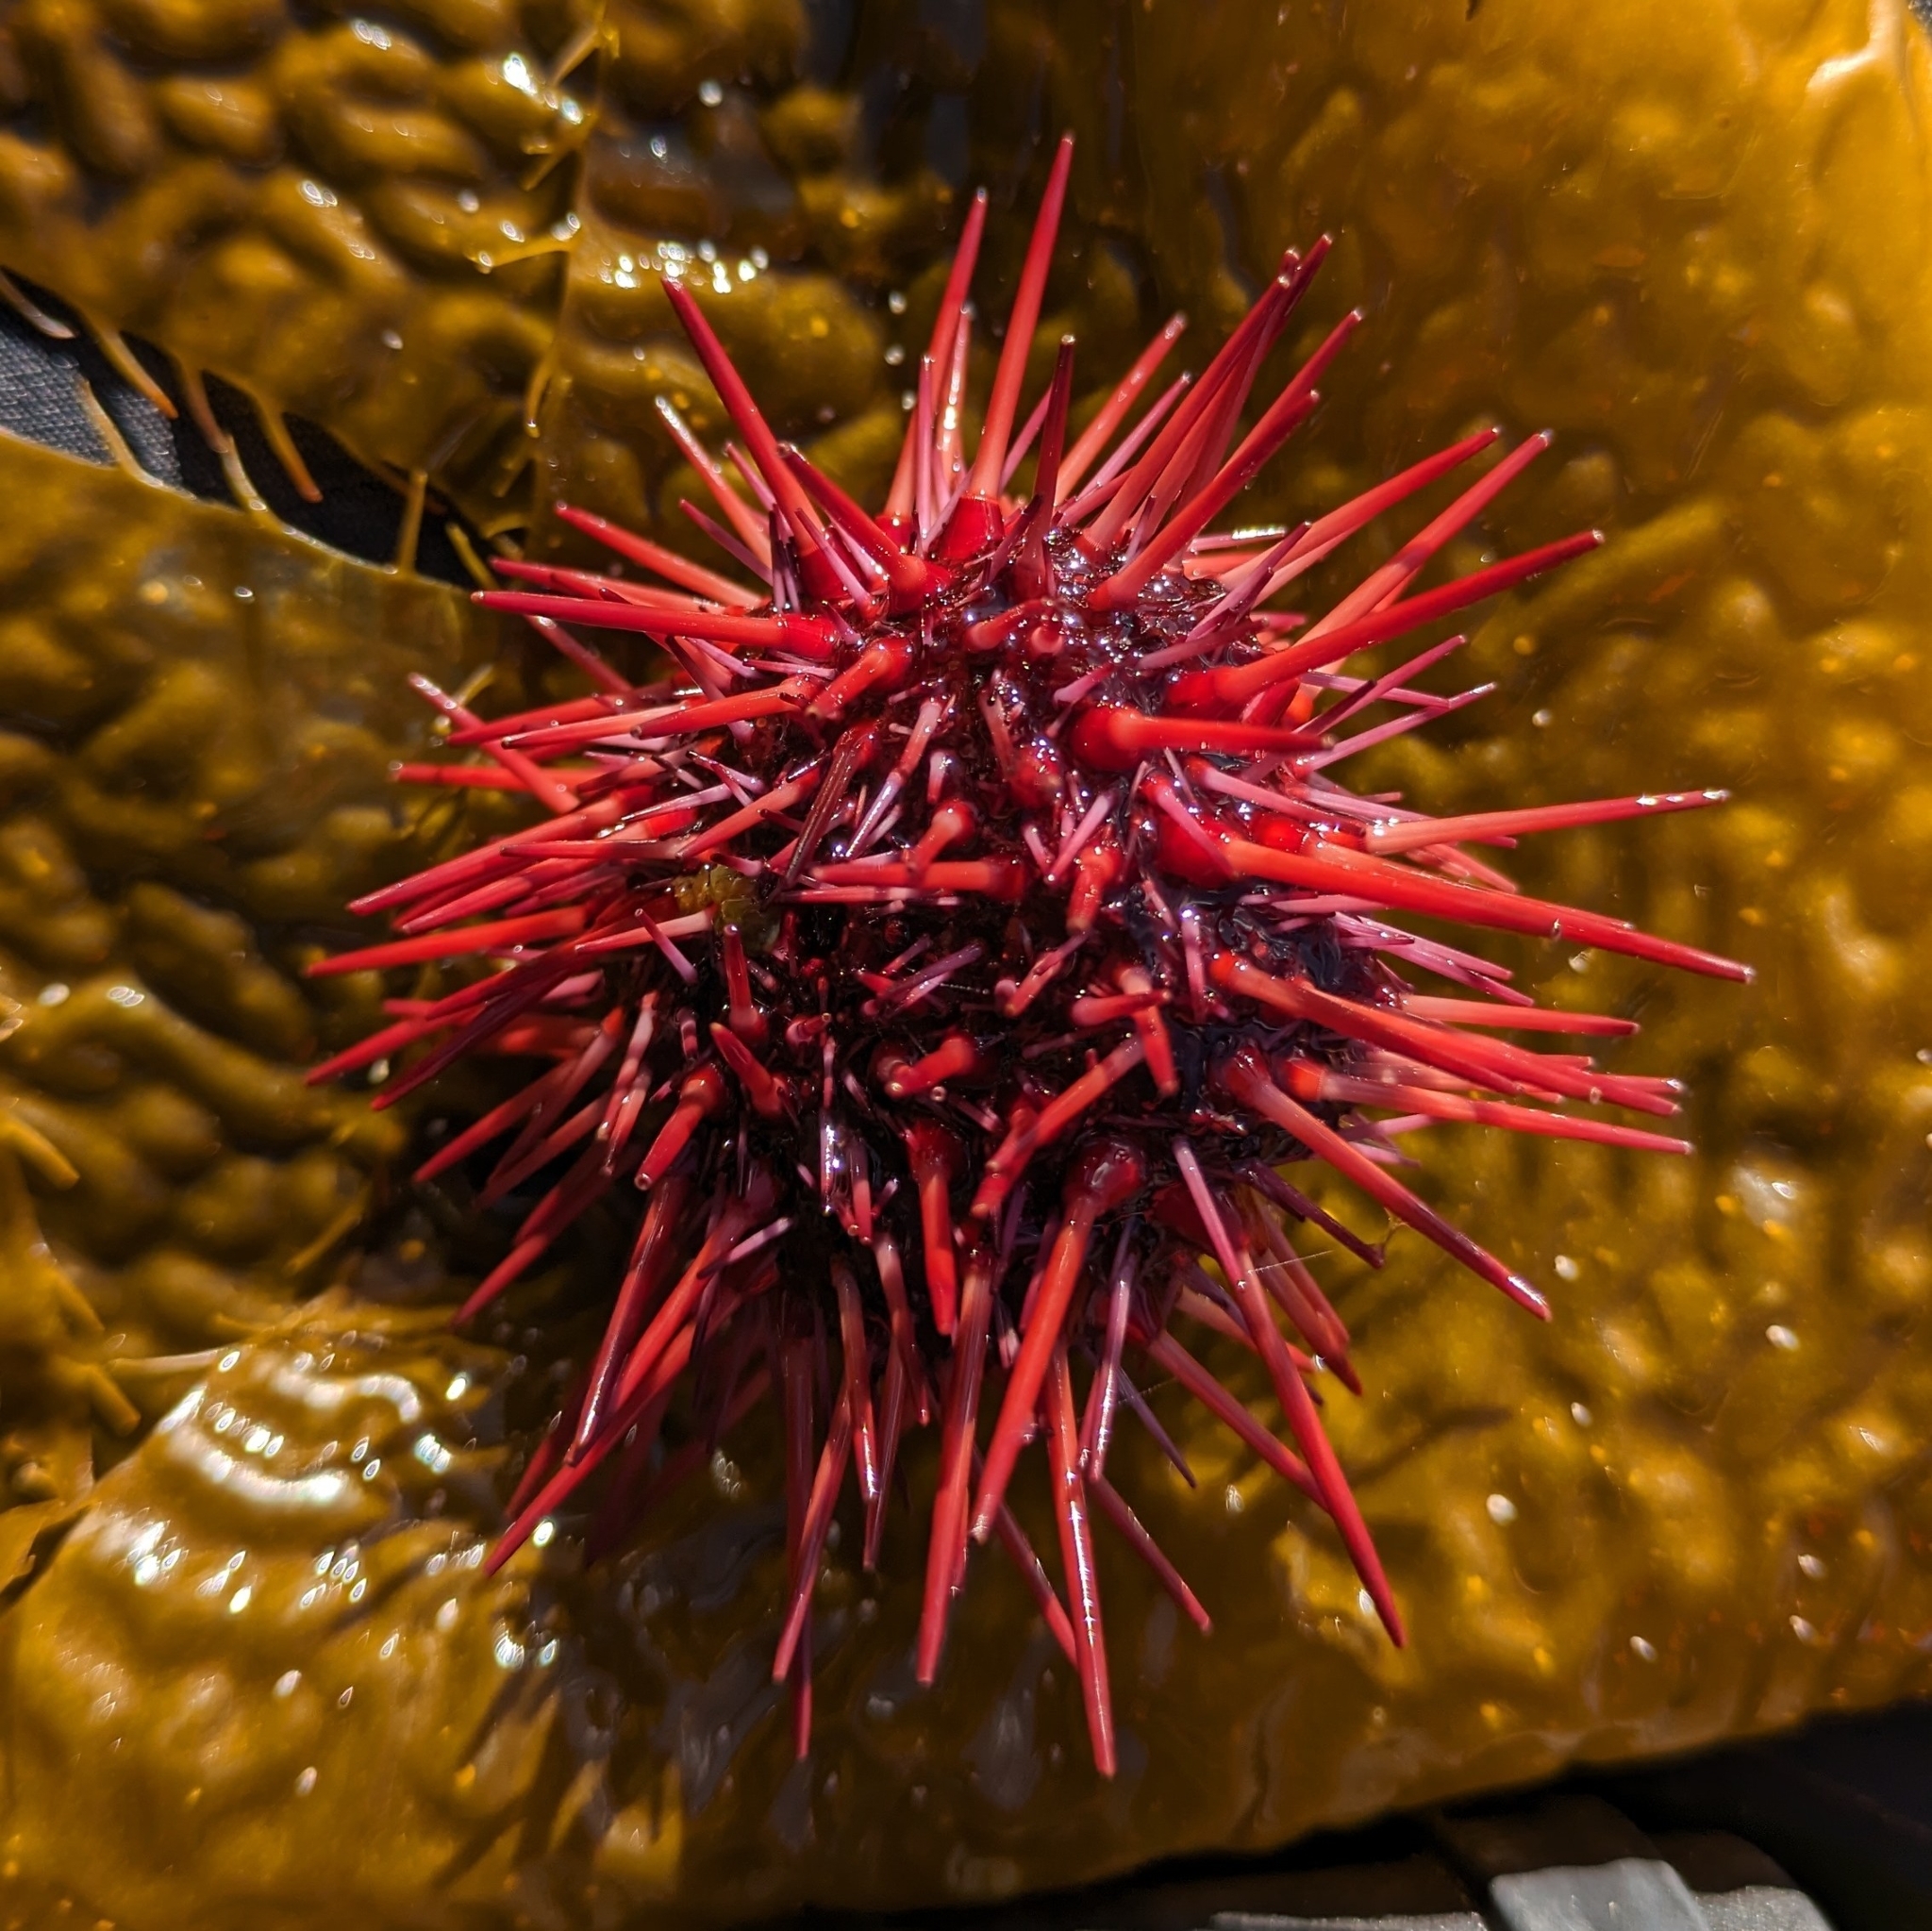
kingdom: Animalia
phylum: Echinodermata
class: Echinoidea
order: Camarodonta
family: Strongylocentrotidae
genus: Mesocentrotus
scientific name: Mesocentrotus franciscanus
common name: Red sea urchin
